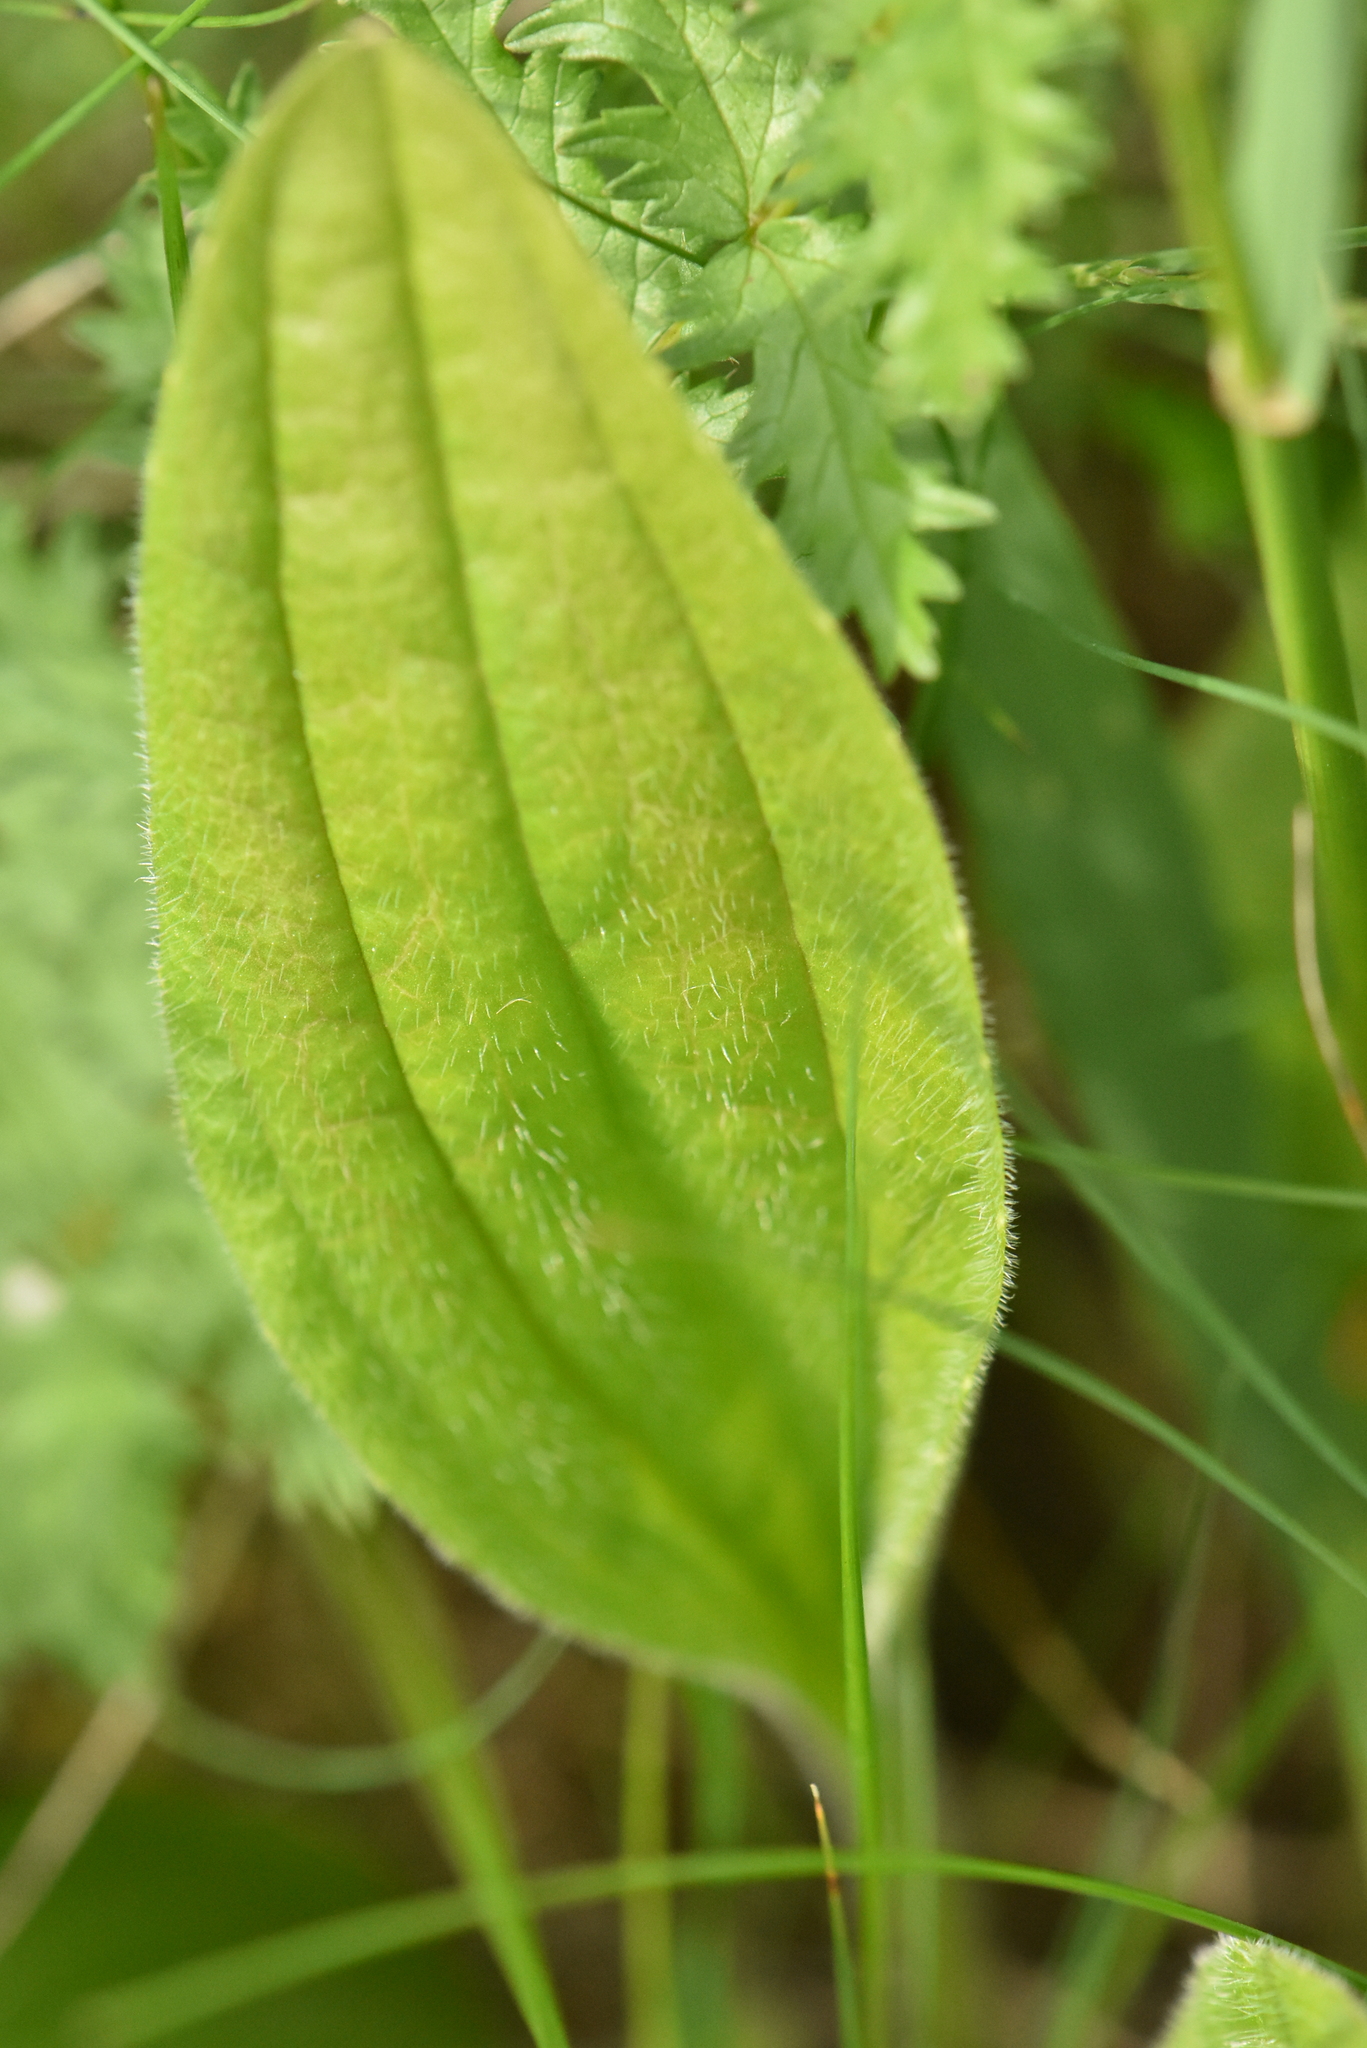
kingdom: Plantae
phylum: Tracheophyta
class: Magnoliopsida
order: Lamiales
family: Plantaginaceae
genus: Plantago
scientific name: Plantago urvillei
